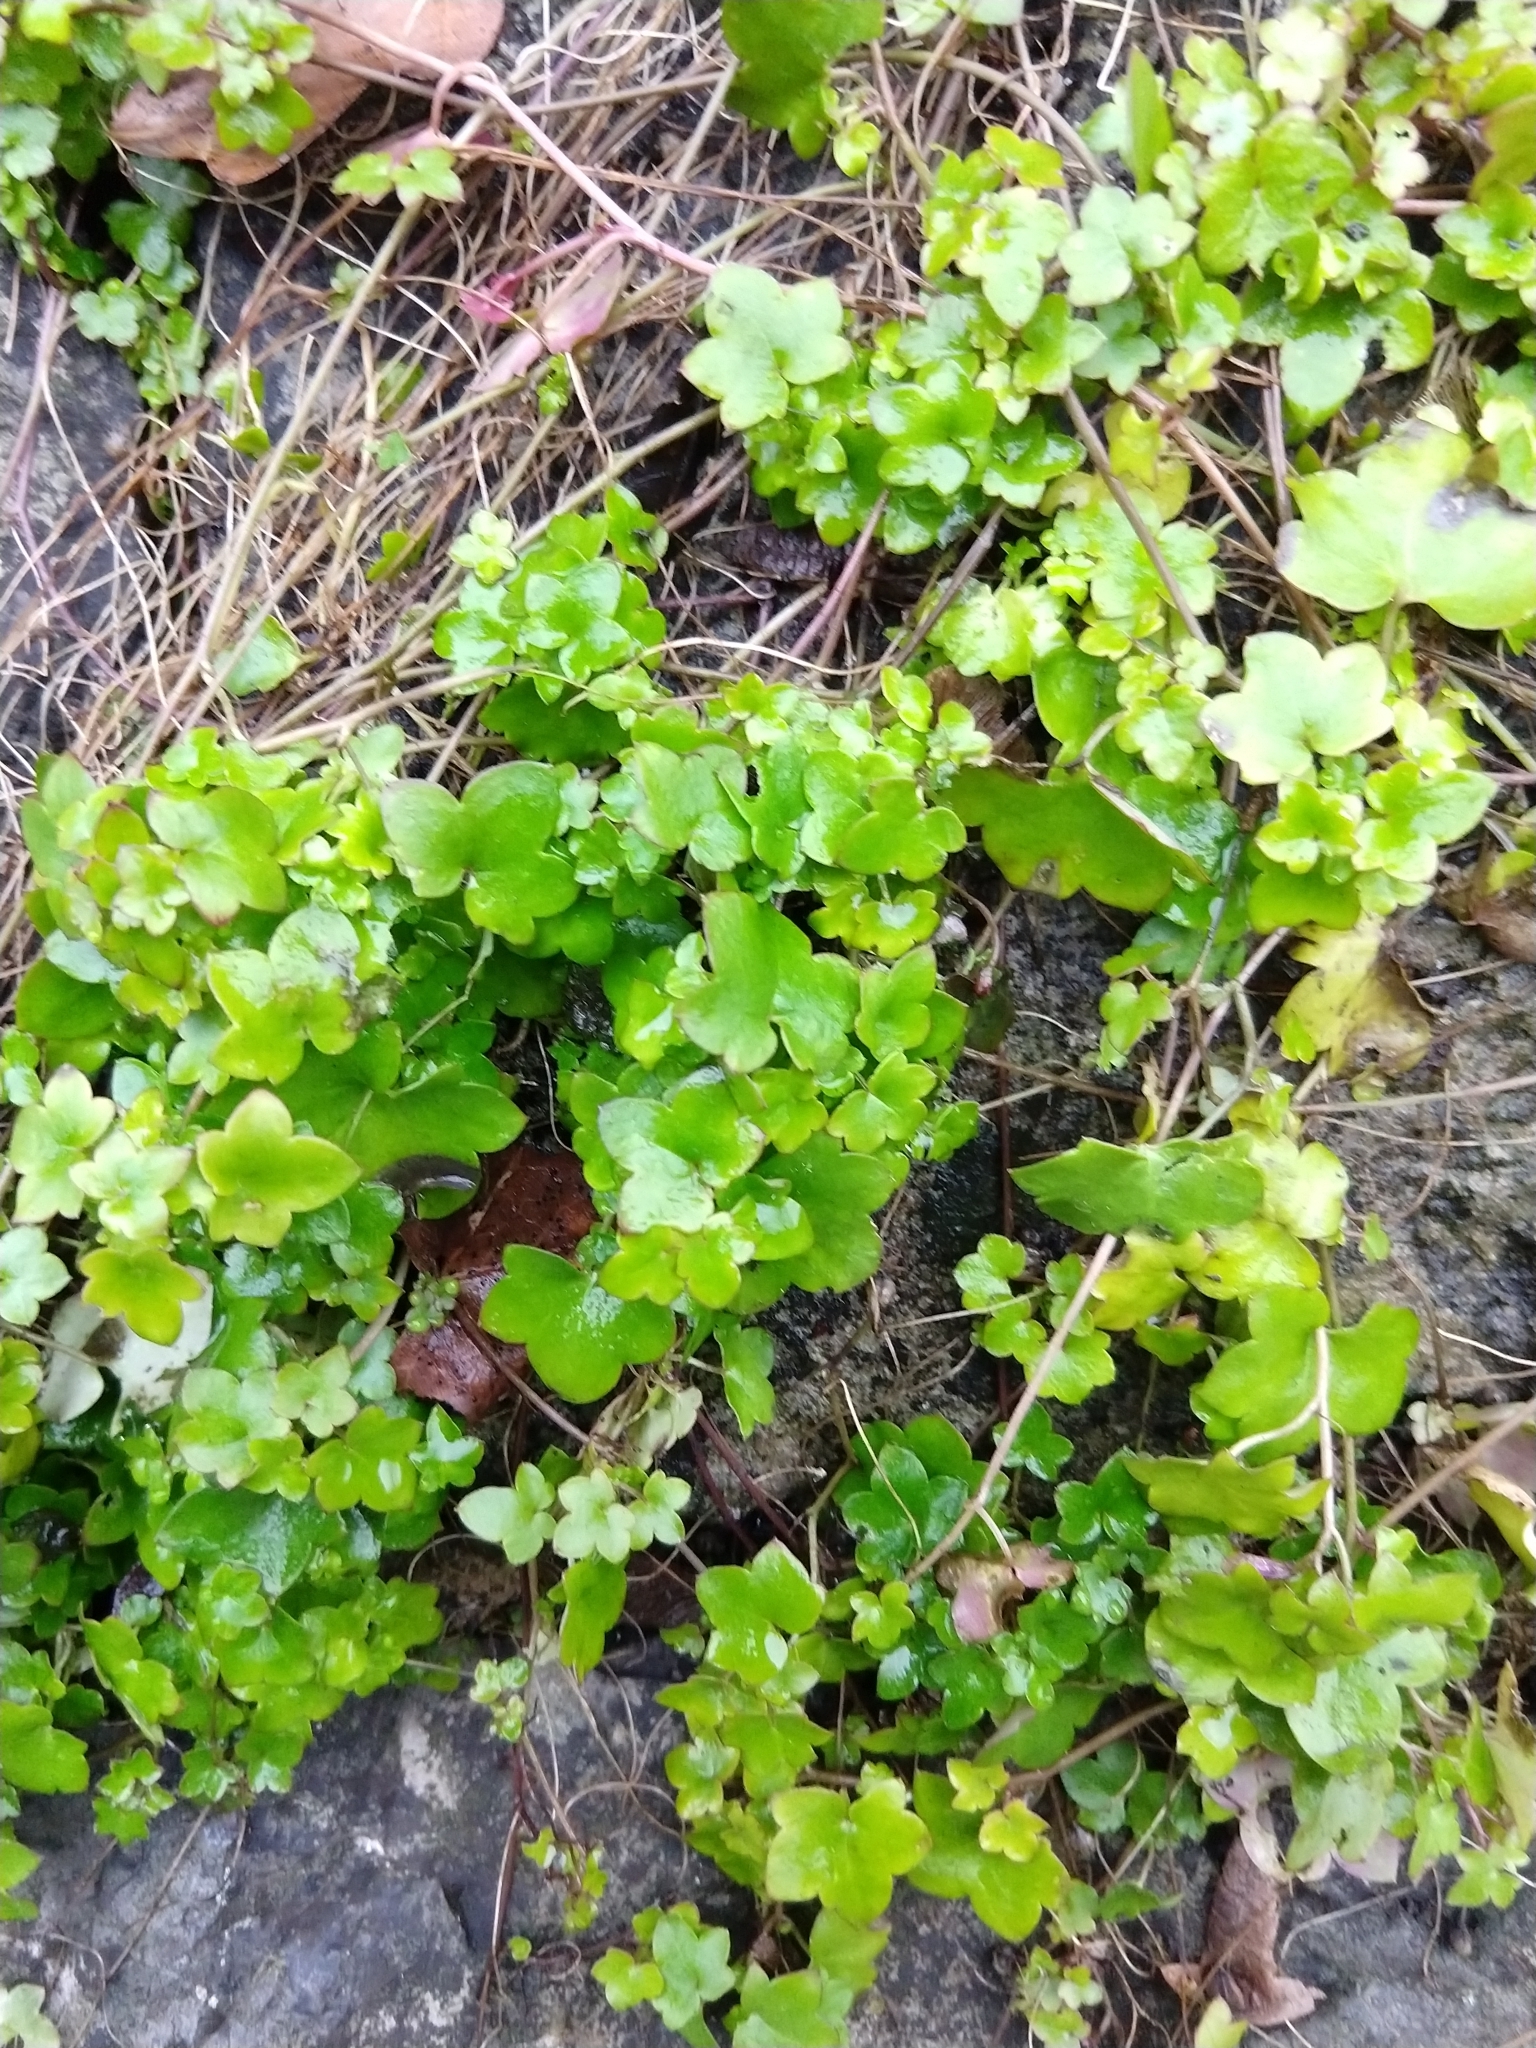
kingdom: Plantae
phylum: Tracheophyta
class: Magnoliopsida
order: Lamiales
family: Plantaginaceae
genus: Cymbalaria
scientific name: Cymbalaria muralis
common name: Ivy-leaved toadflax
